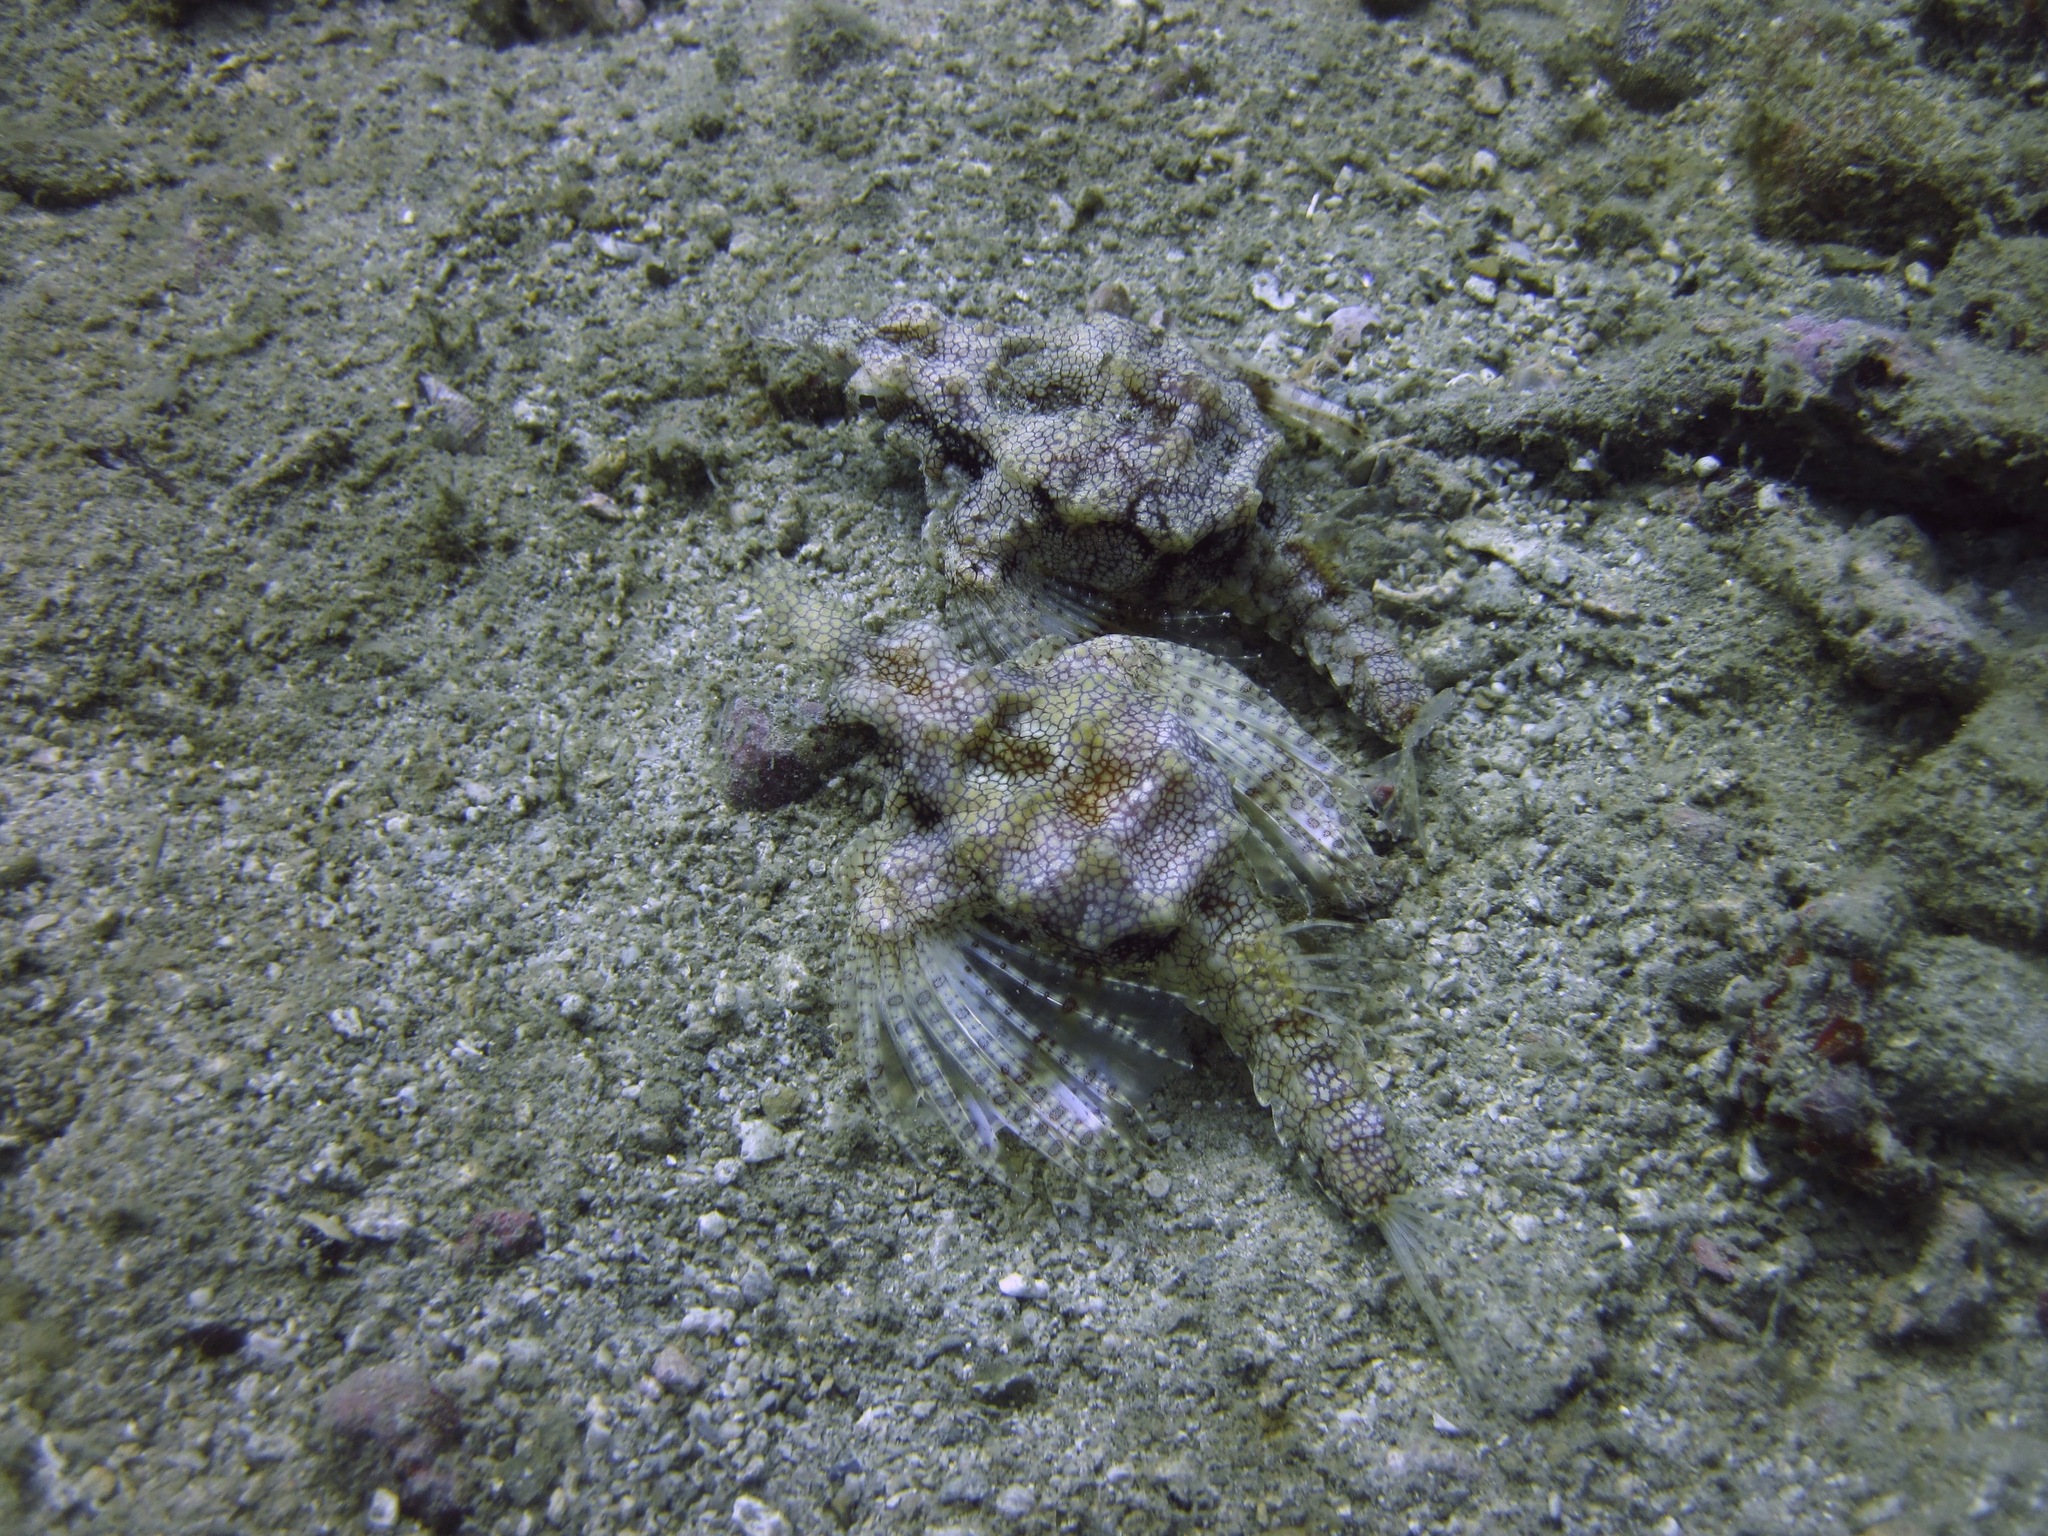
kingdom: Animalia
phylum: Chordata
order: Gasterosteiformes
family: Pegasidae
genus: Eurypegasus
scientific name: Eurypegasus draconis
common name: Short dragonfish
